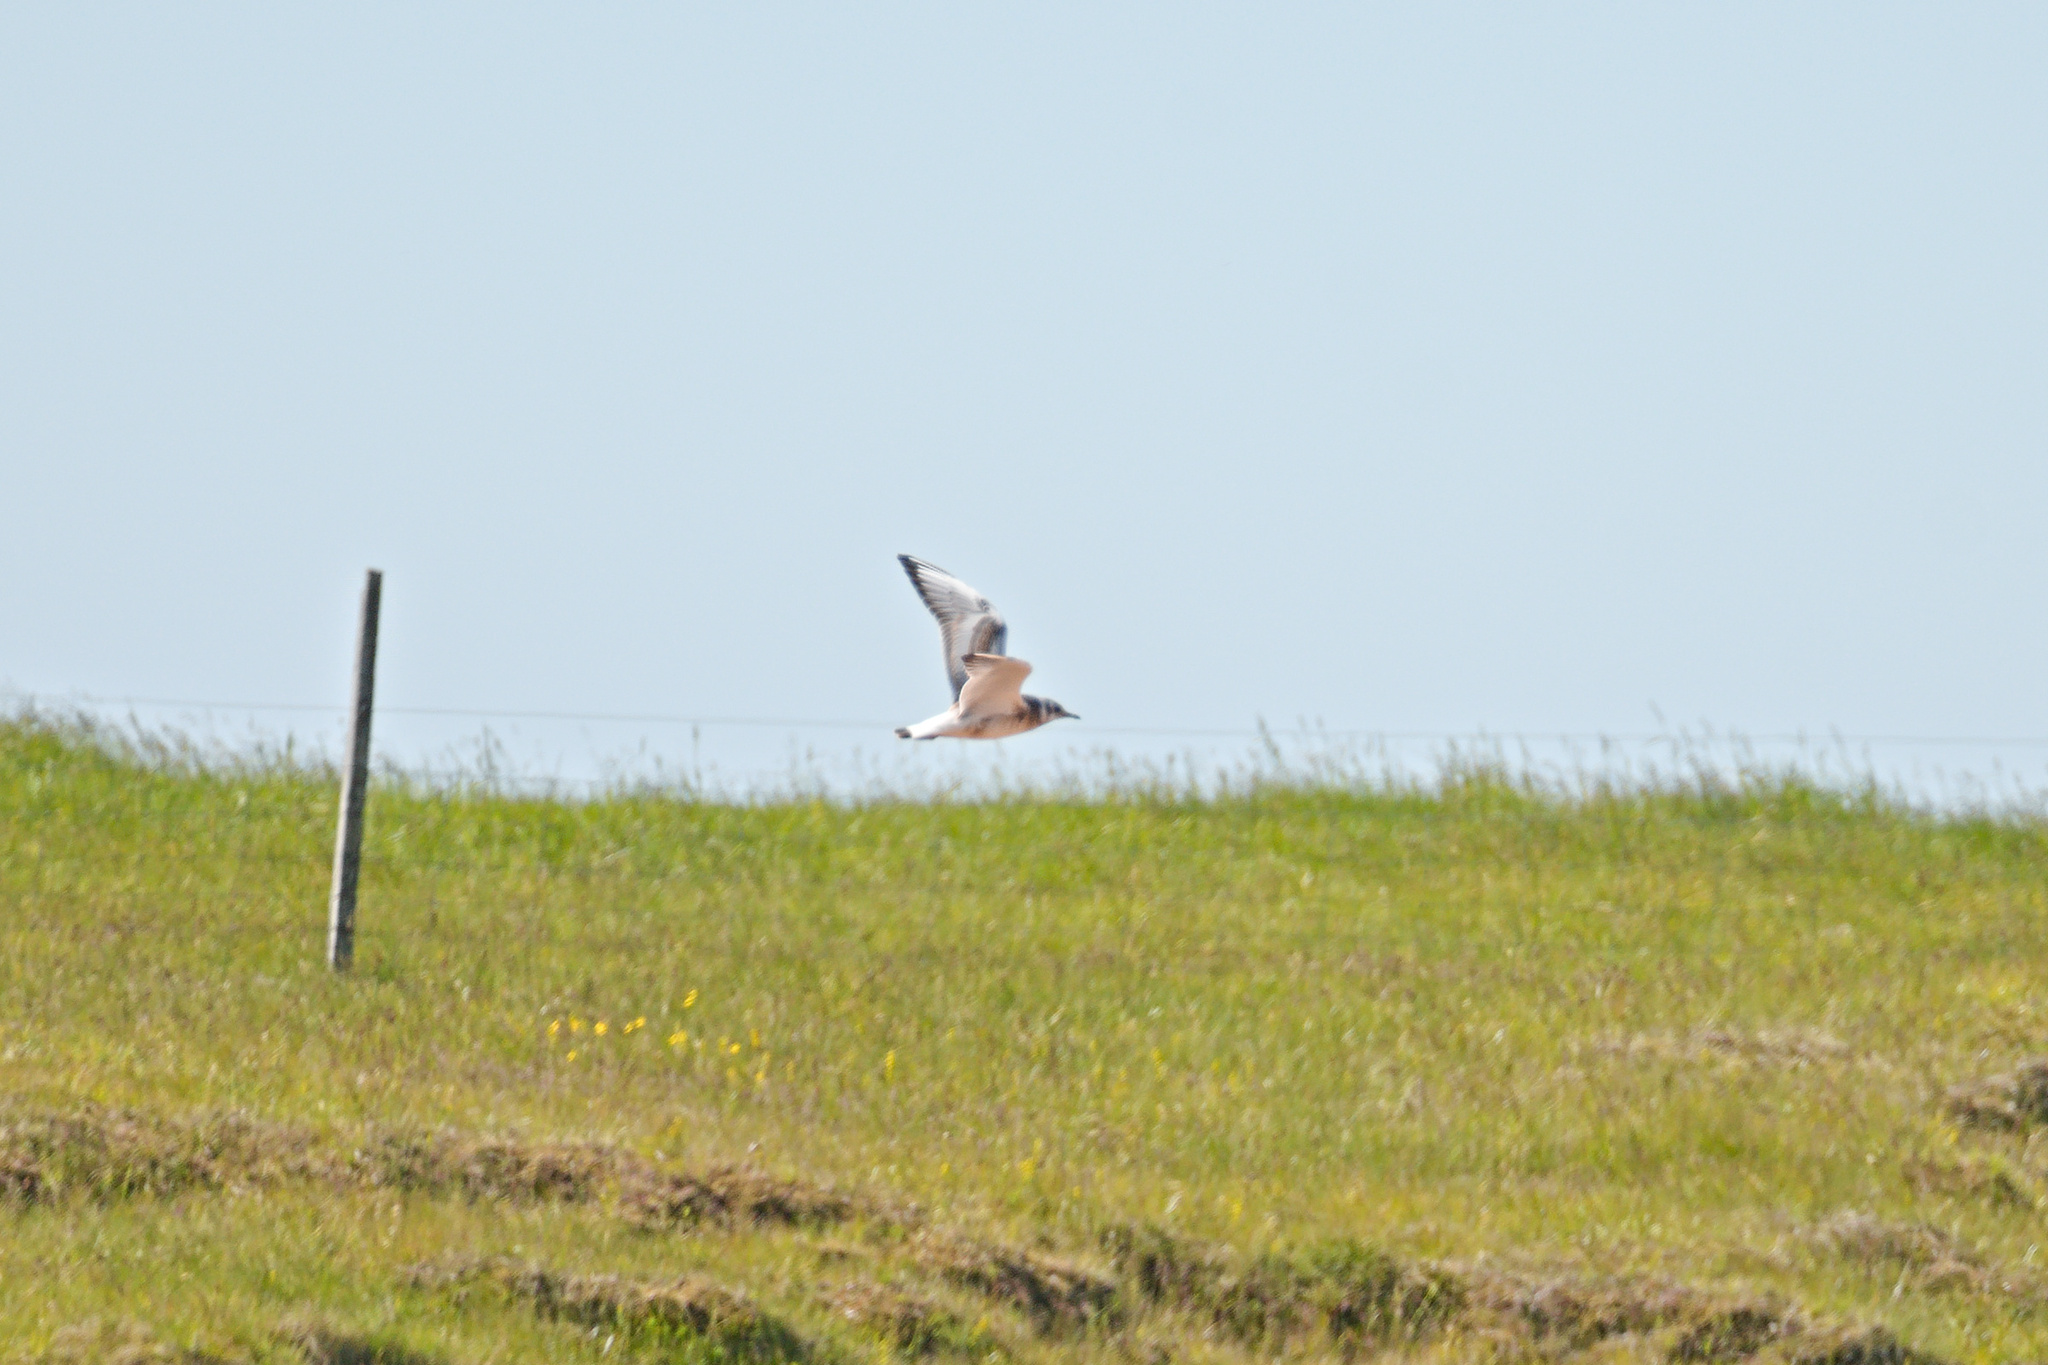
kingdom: Animalia
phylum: Chordata
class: Aves
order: Charadriiformes
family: Laridae
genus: Chroicocephalus
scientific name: Chroicocephalus ridibundus
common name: Black-headed gull
